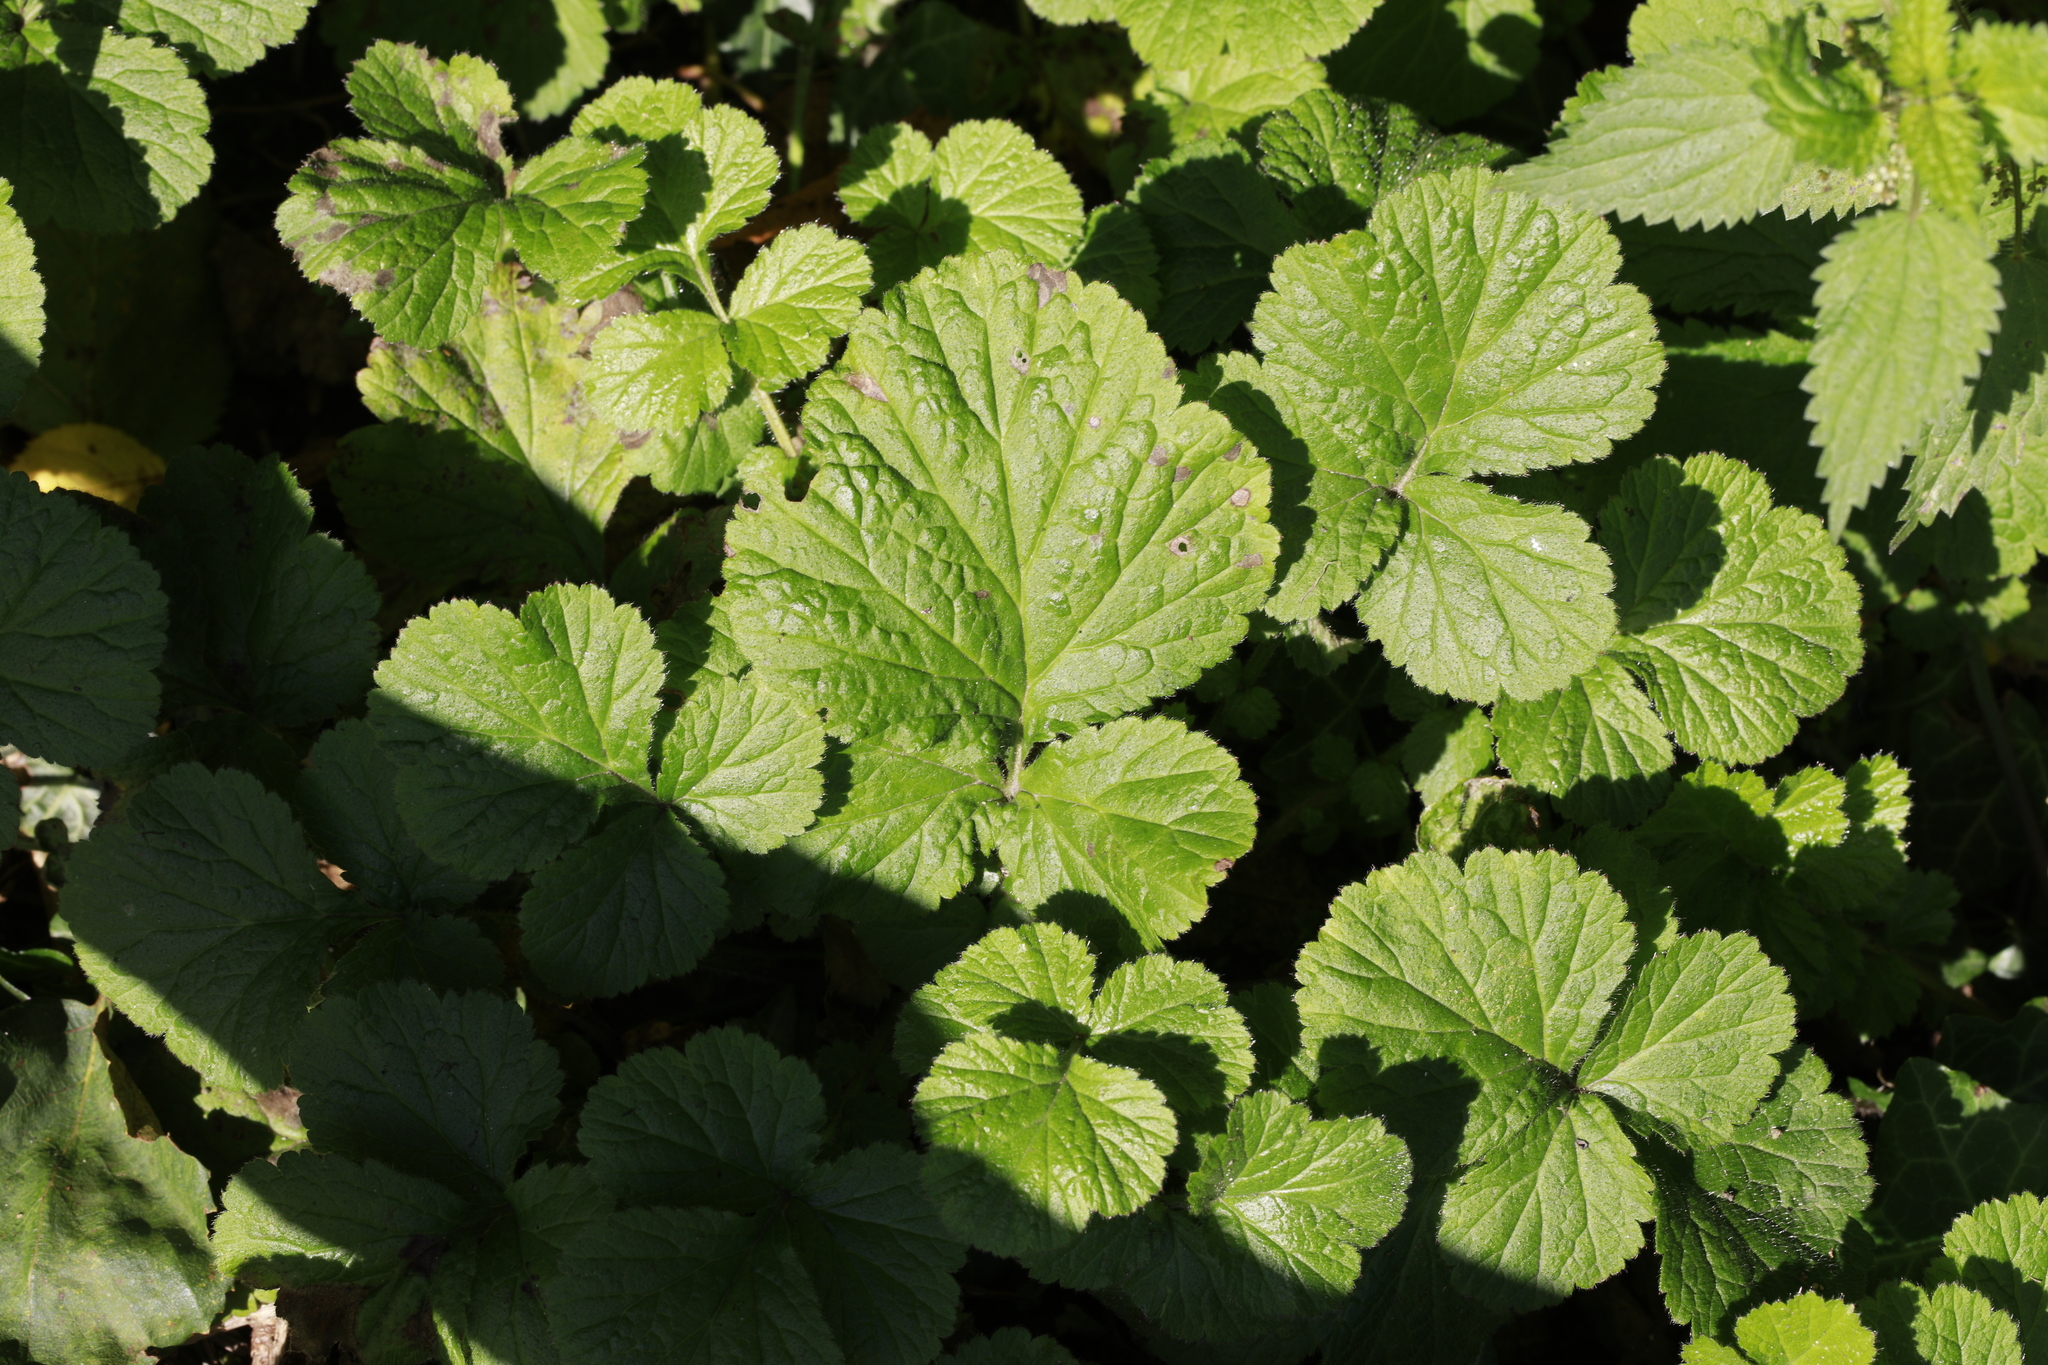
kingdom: Plantae
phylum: Tracheophyta
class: Magnoliopsida
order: Rosales
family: Rosaceae
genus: Geum
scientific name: Geum urbanum
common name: Wood avens
